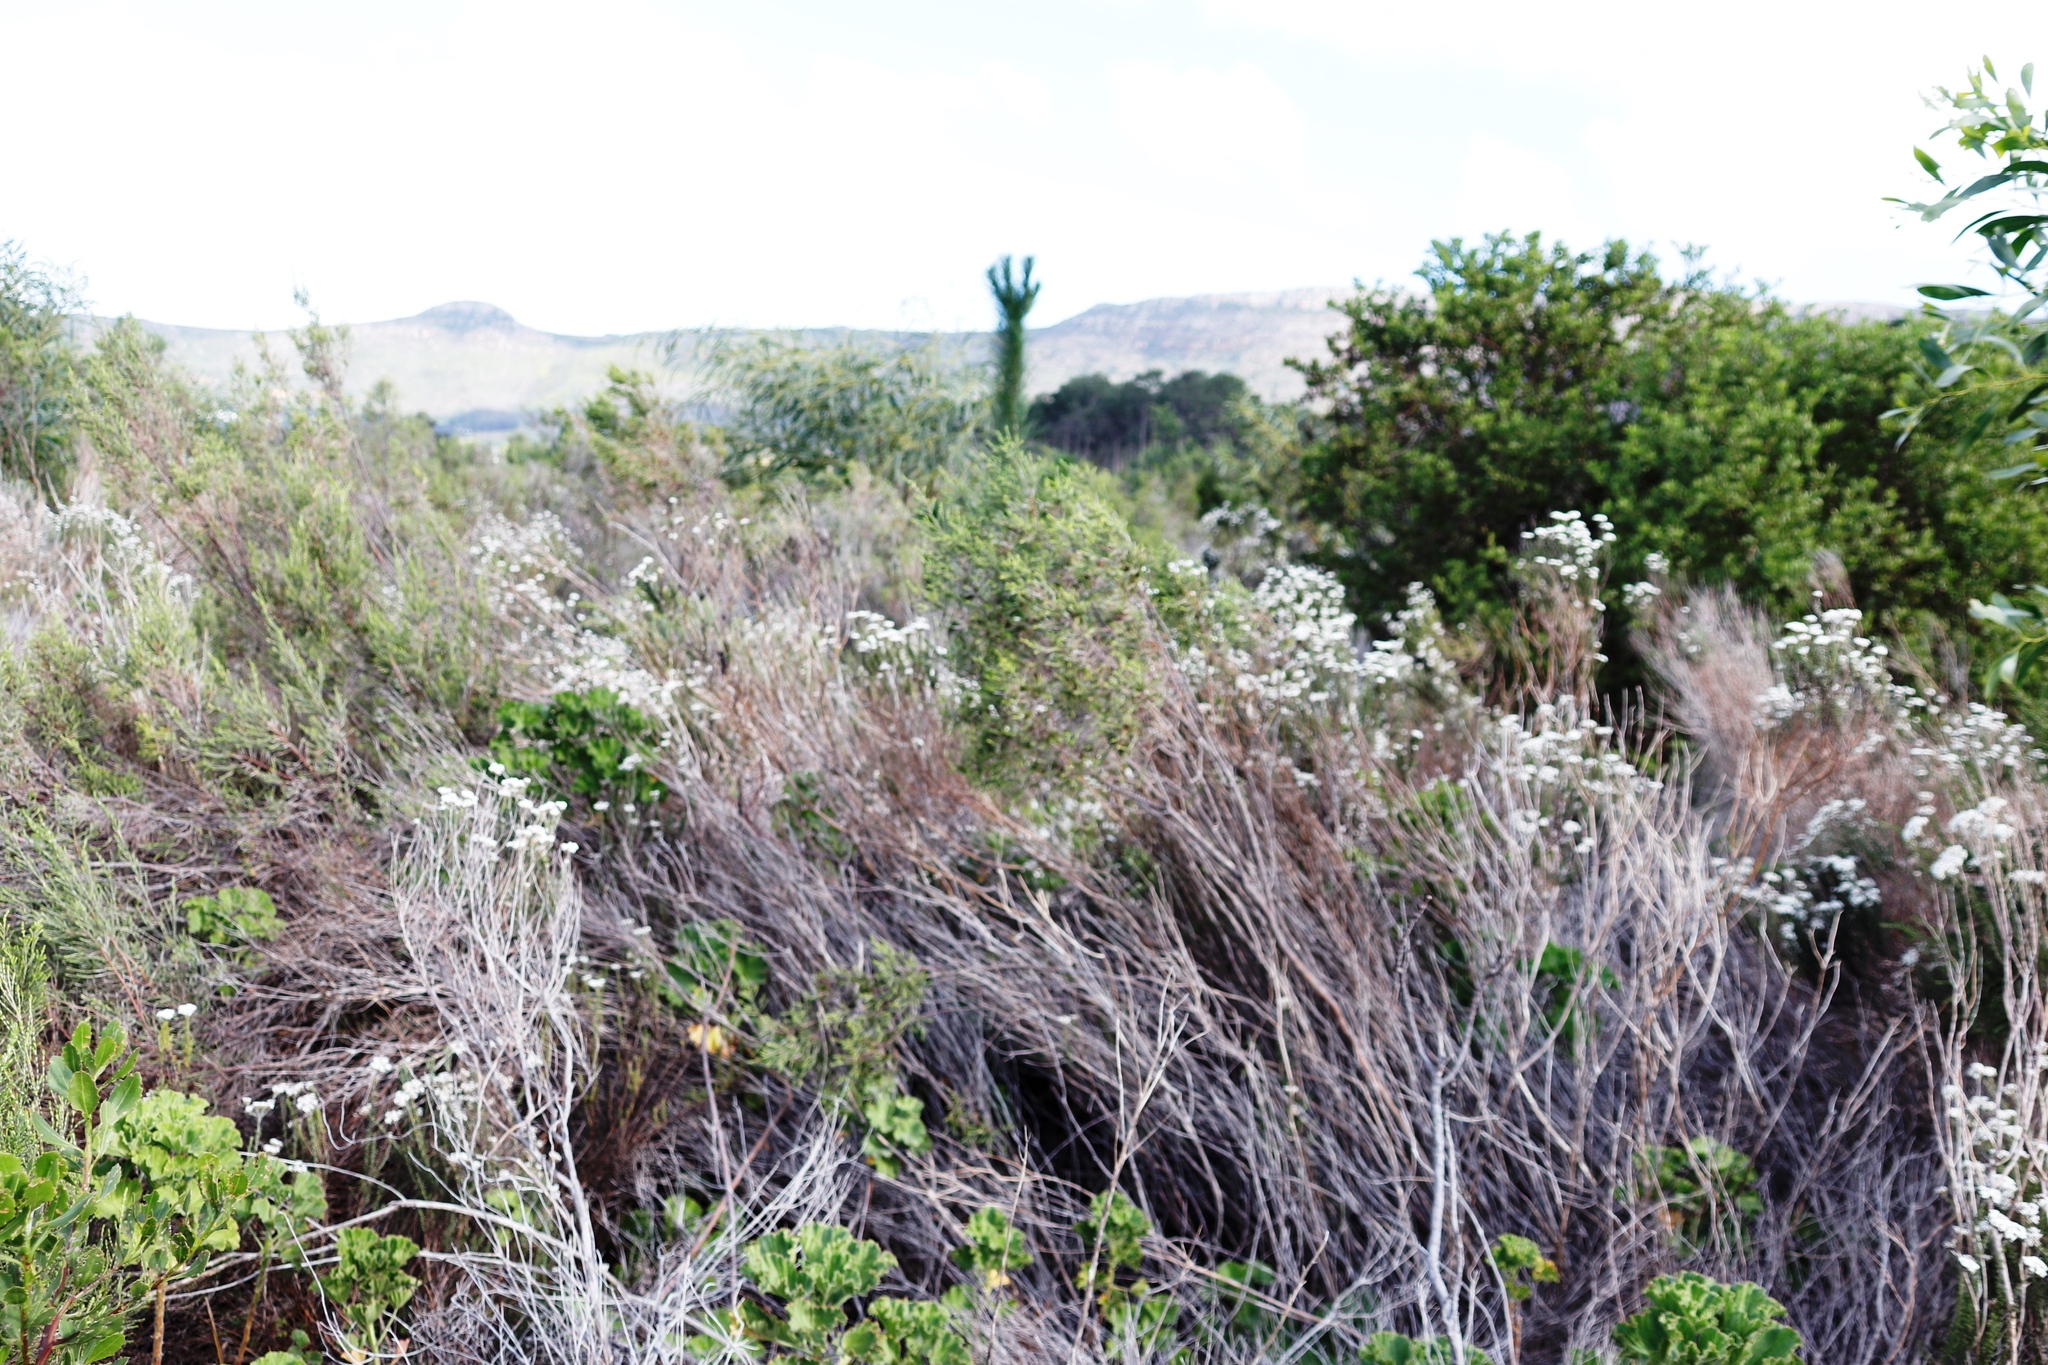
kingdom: Plantae
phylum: Tracheophyta
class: Pinopsida
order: Pinales
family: Pinaceae
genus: Pinus
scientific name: Pinus radiata
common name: Monterey pine
